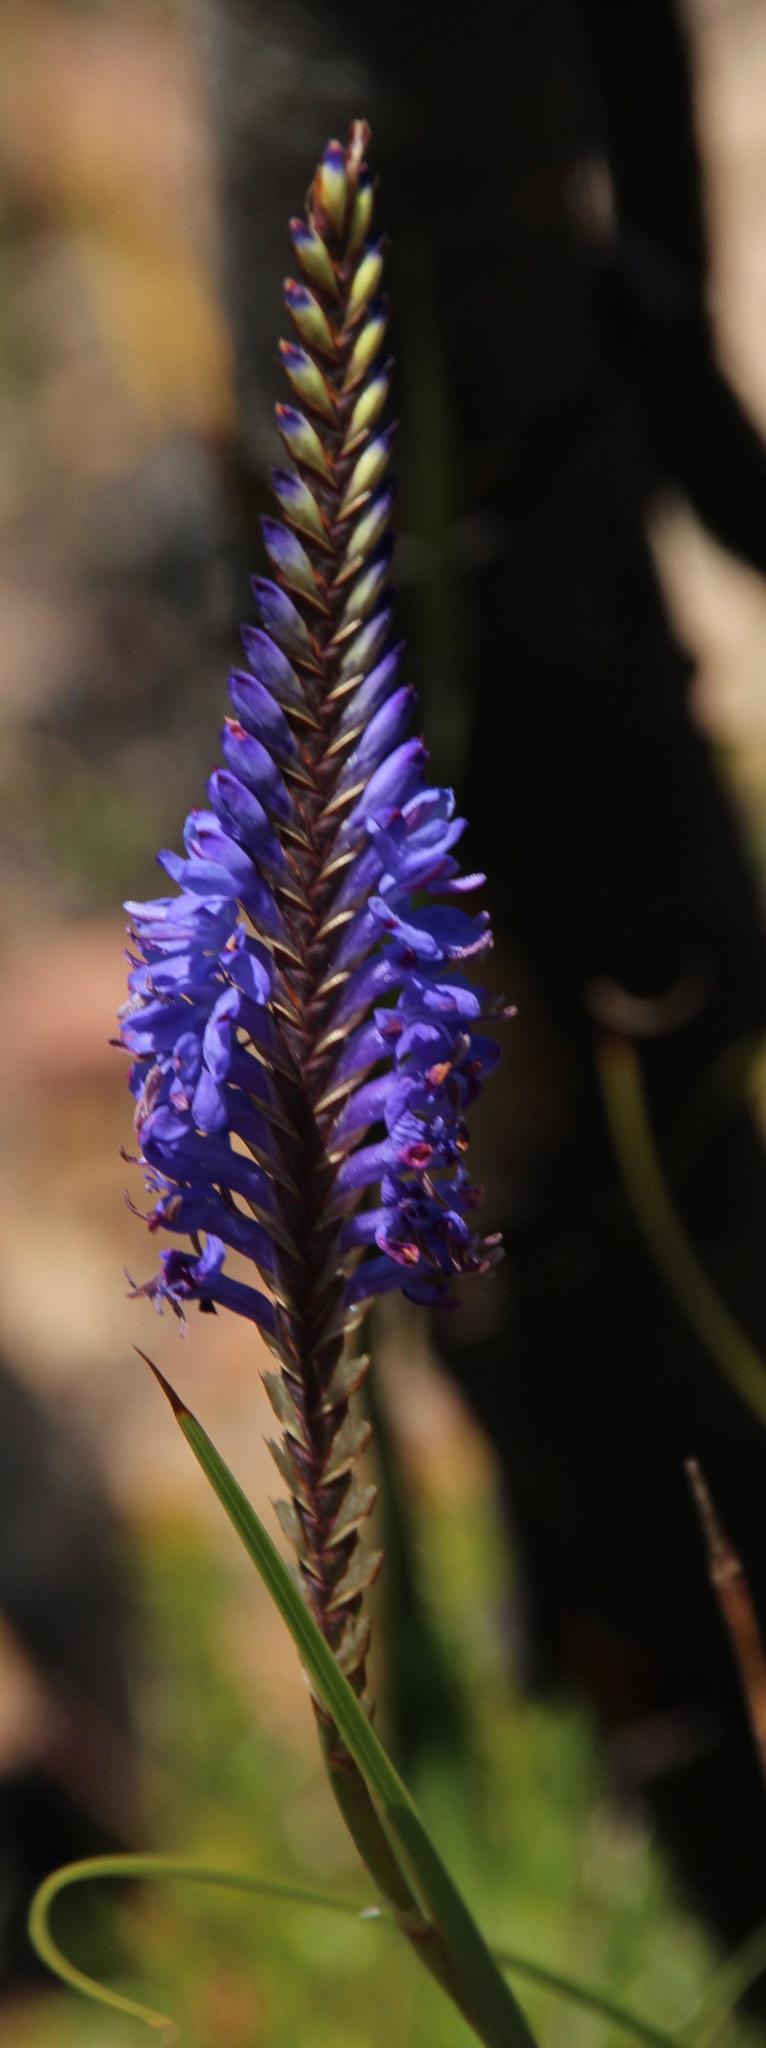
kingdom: Plantae
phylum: Tracheophyta
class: Liliopsida
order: Asparagales
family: Iridaceae
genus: Micranthus
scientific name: Micranthus alopecuroides
